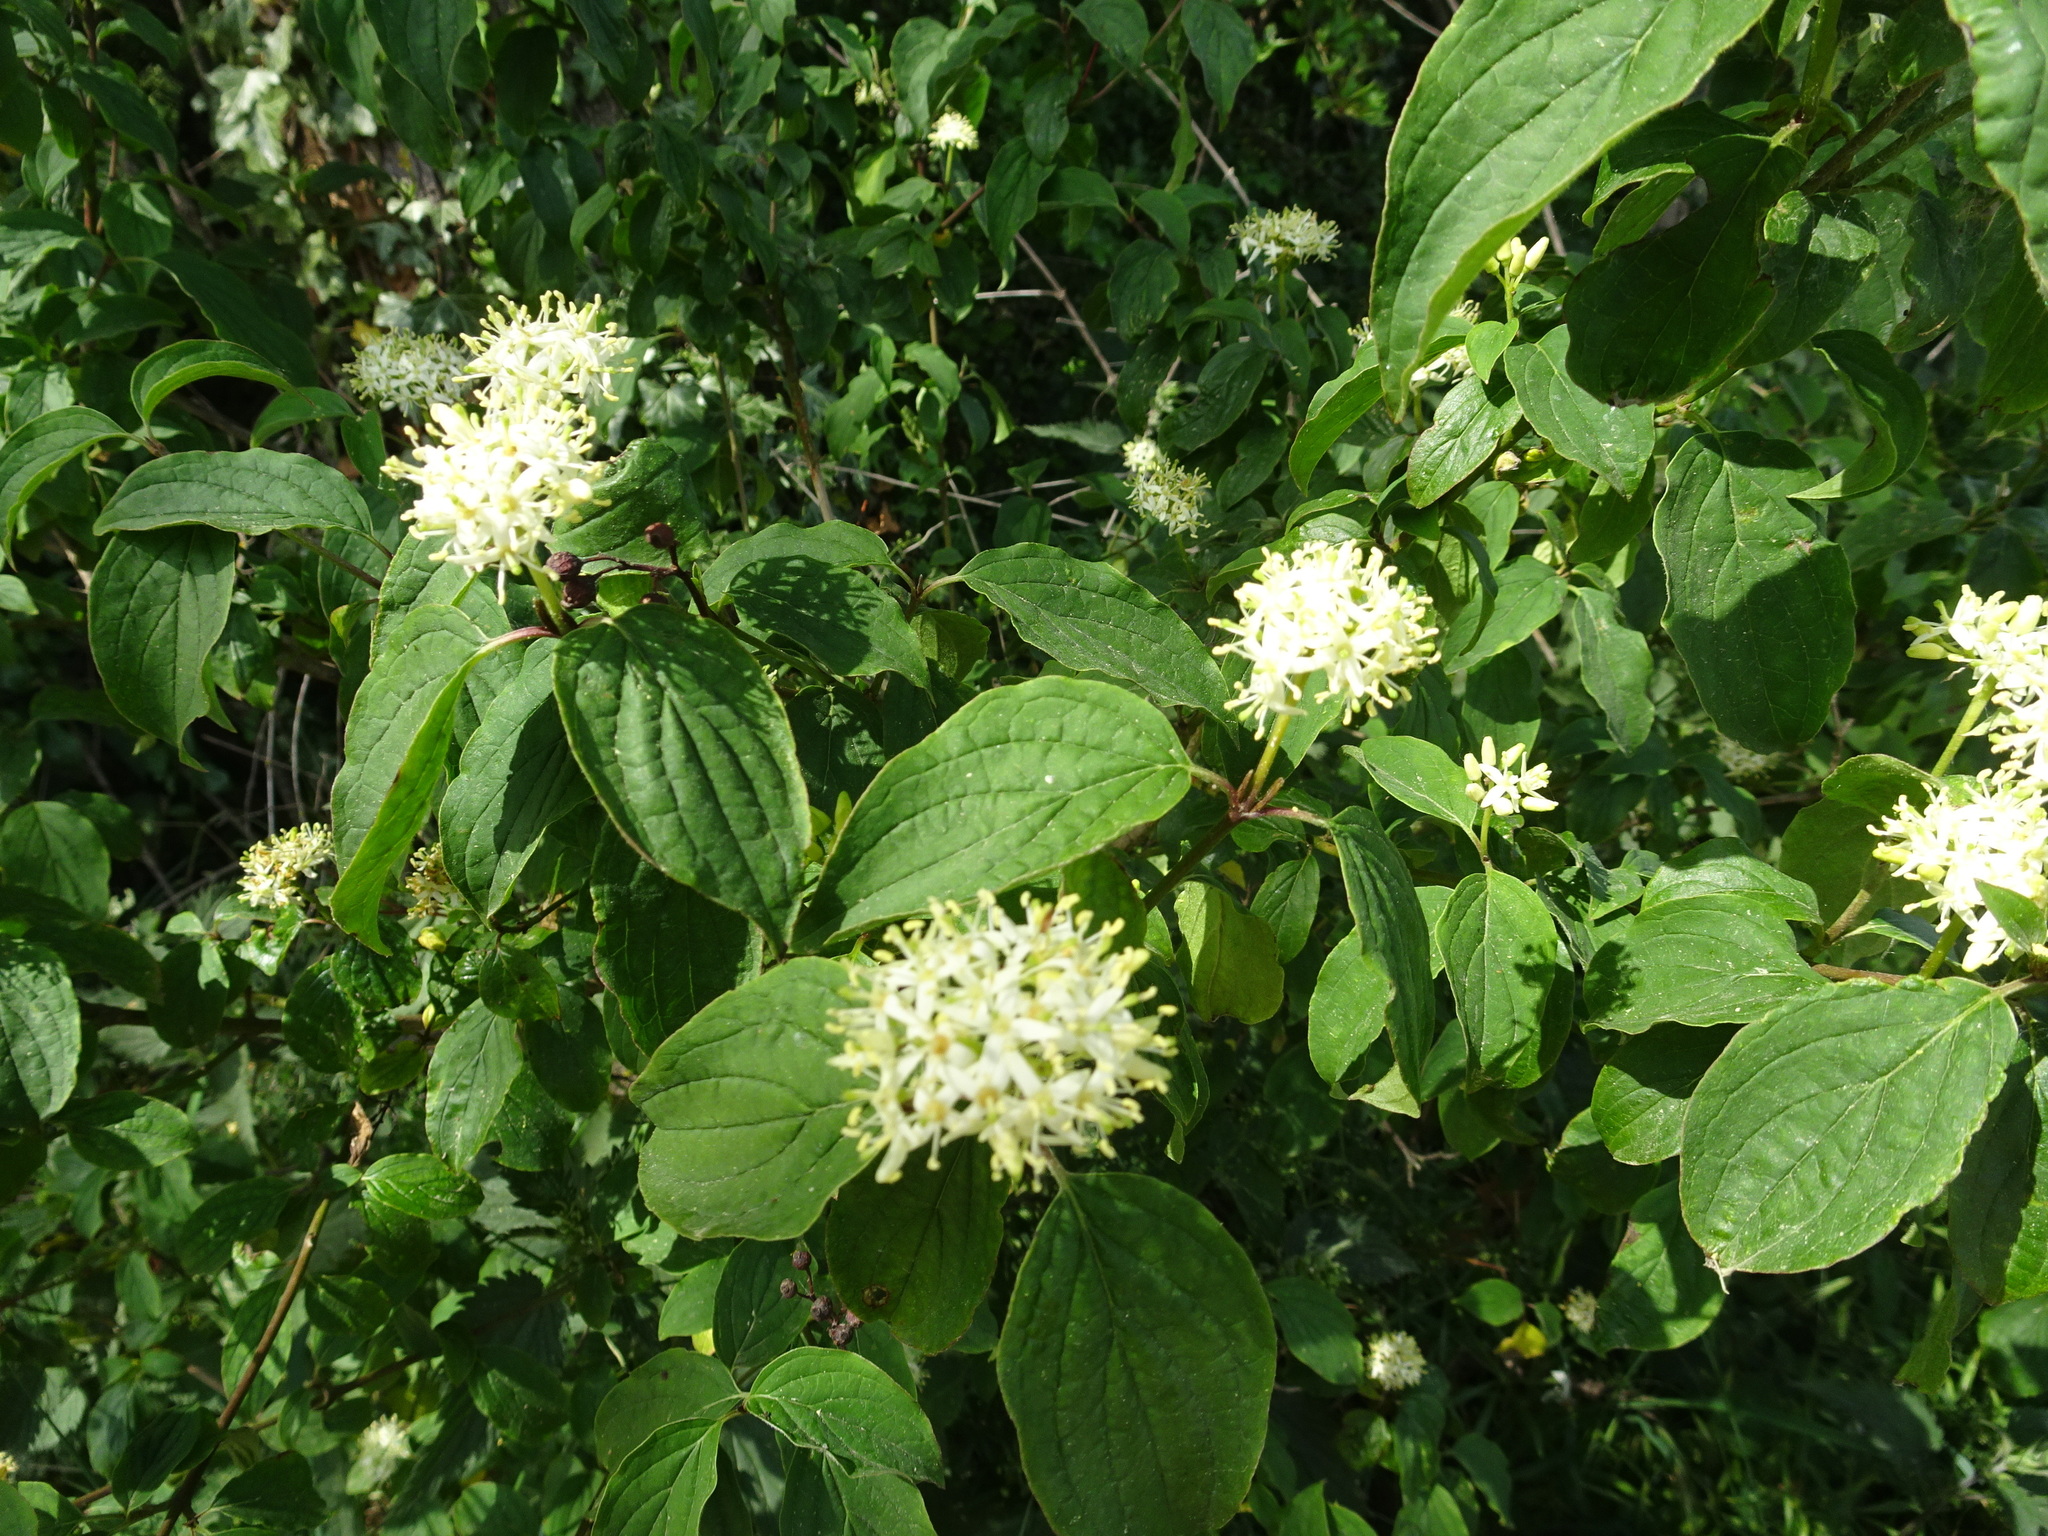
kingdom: Plantae
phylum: Tracheophyta
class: Magnoliopsida
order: Cornales
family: Cornaceae
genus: Cornus
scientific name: Cornus sanguinea
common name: Dogwood
